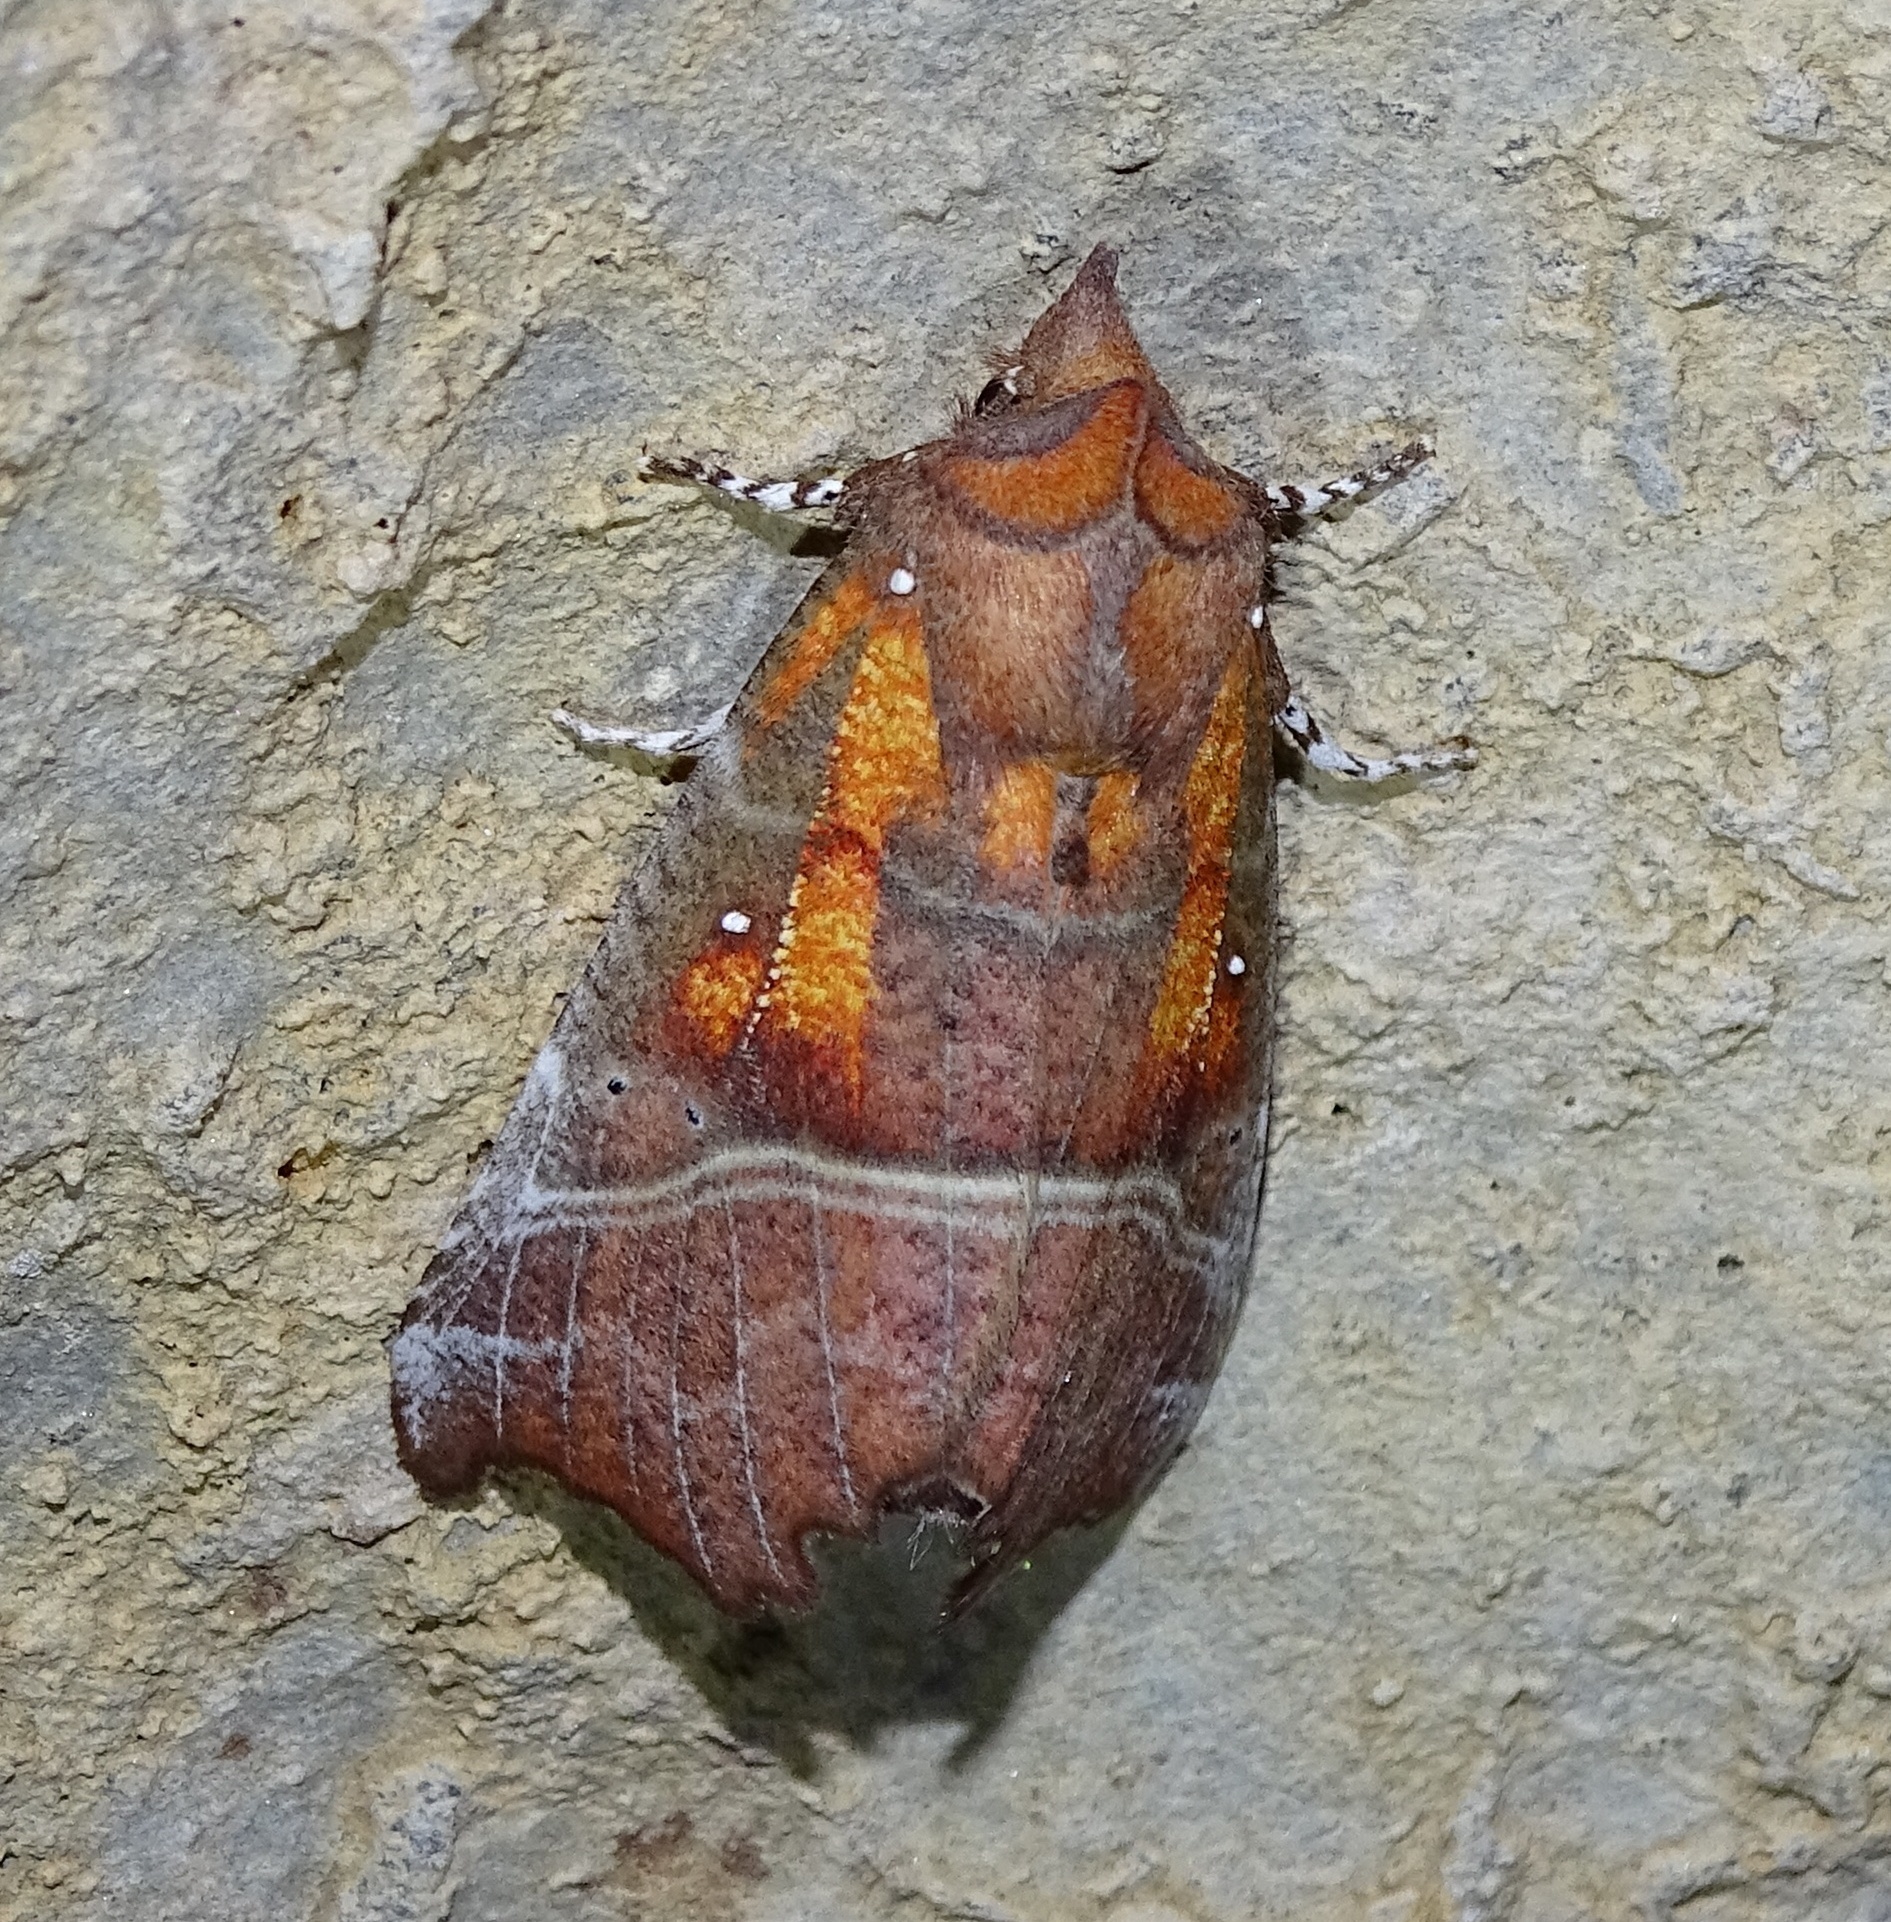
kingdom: Animalia
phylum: Arthropoda
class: Insecta
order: Lepidoptera
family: Erebidae
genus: Scoliopteryx
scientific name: Scoliopteryx libatrix
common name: Herald
